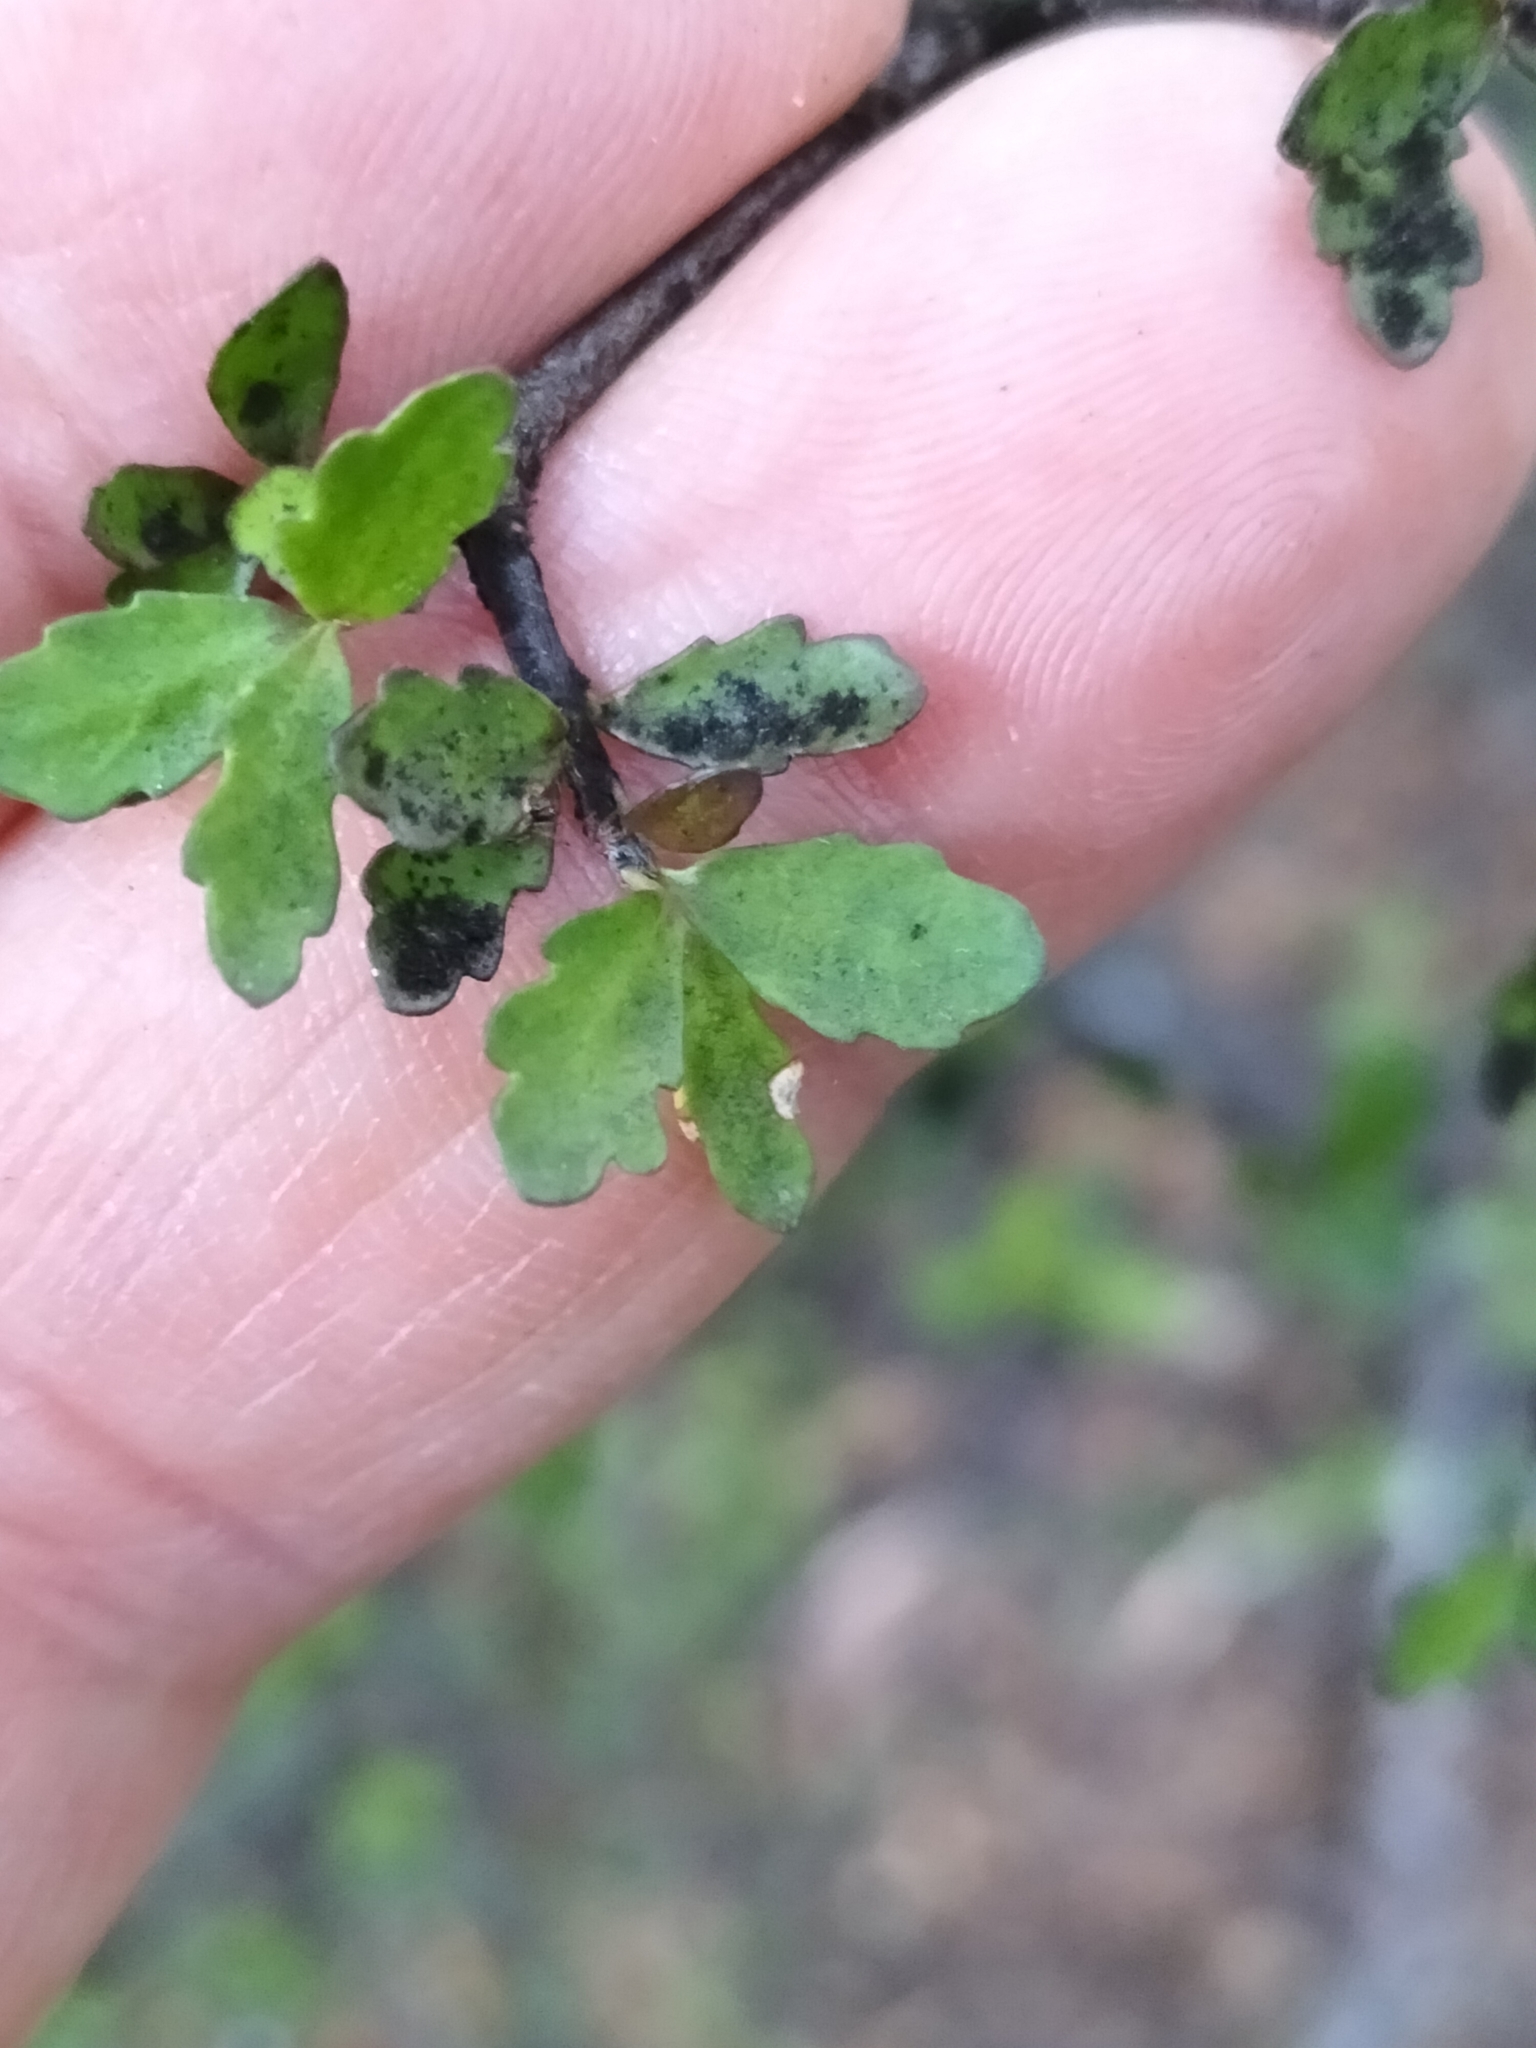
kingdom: Plantae
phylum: Tracheophyta
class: Magnoliopsida
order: Apiales
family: Pittosporaceae
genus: Pittosporum
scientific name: Pittosporum divaricatum
